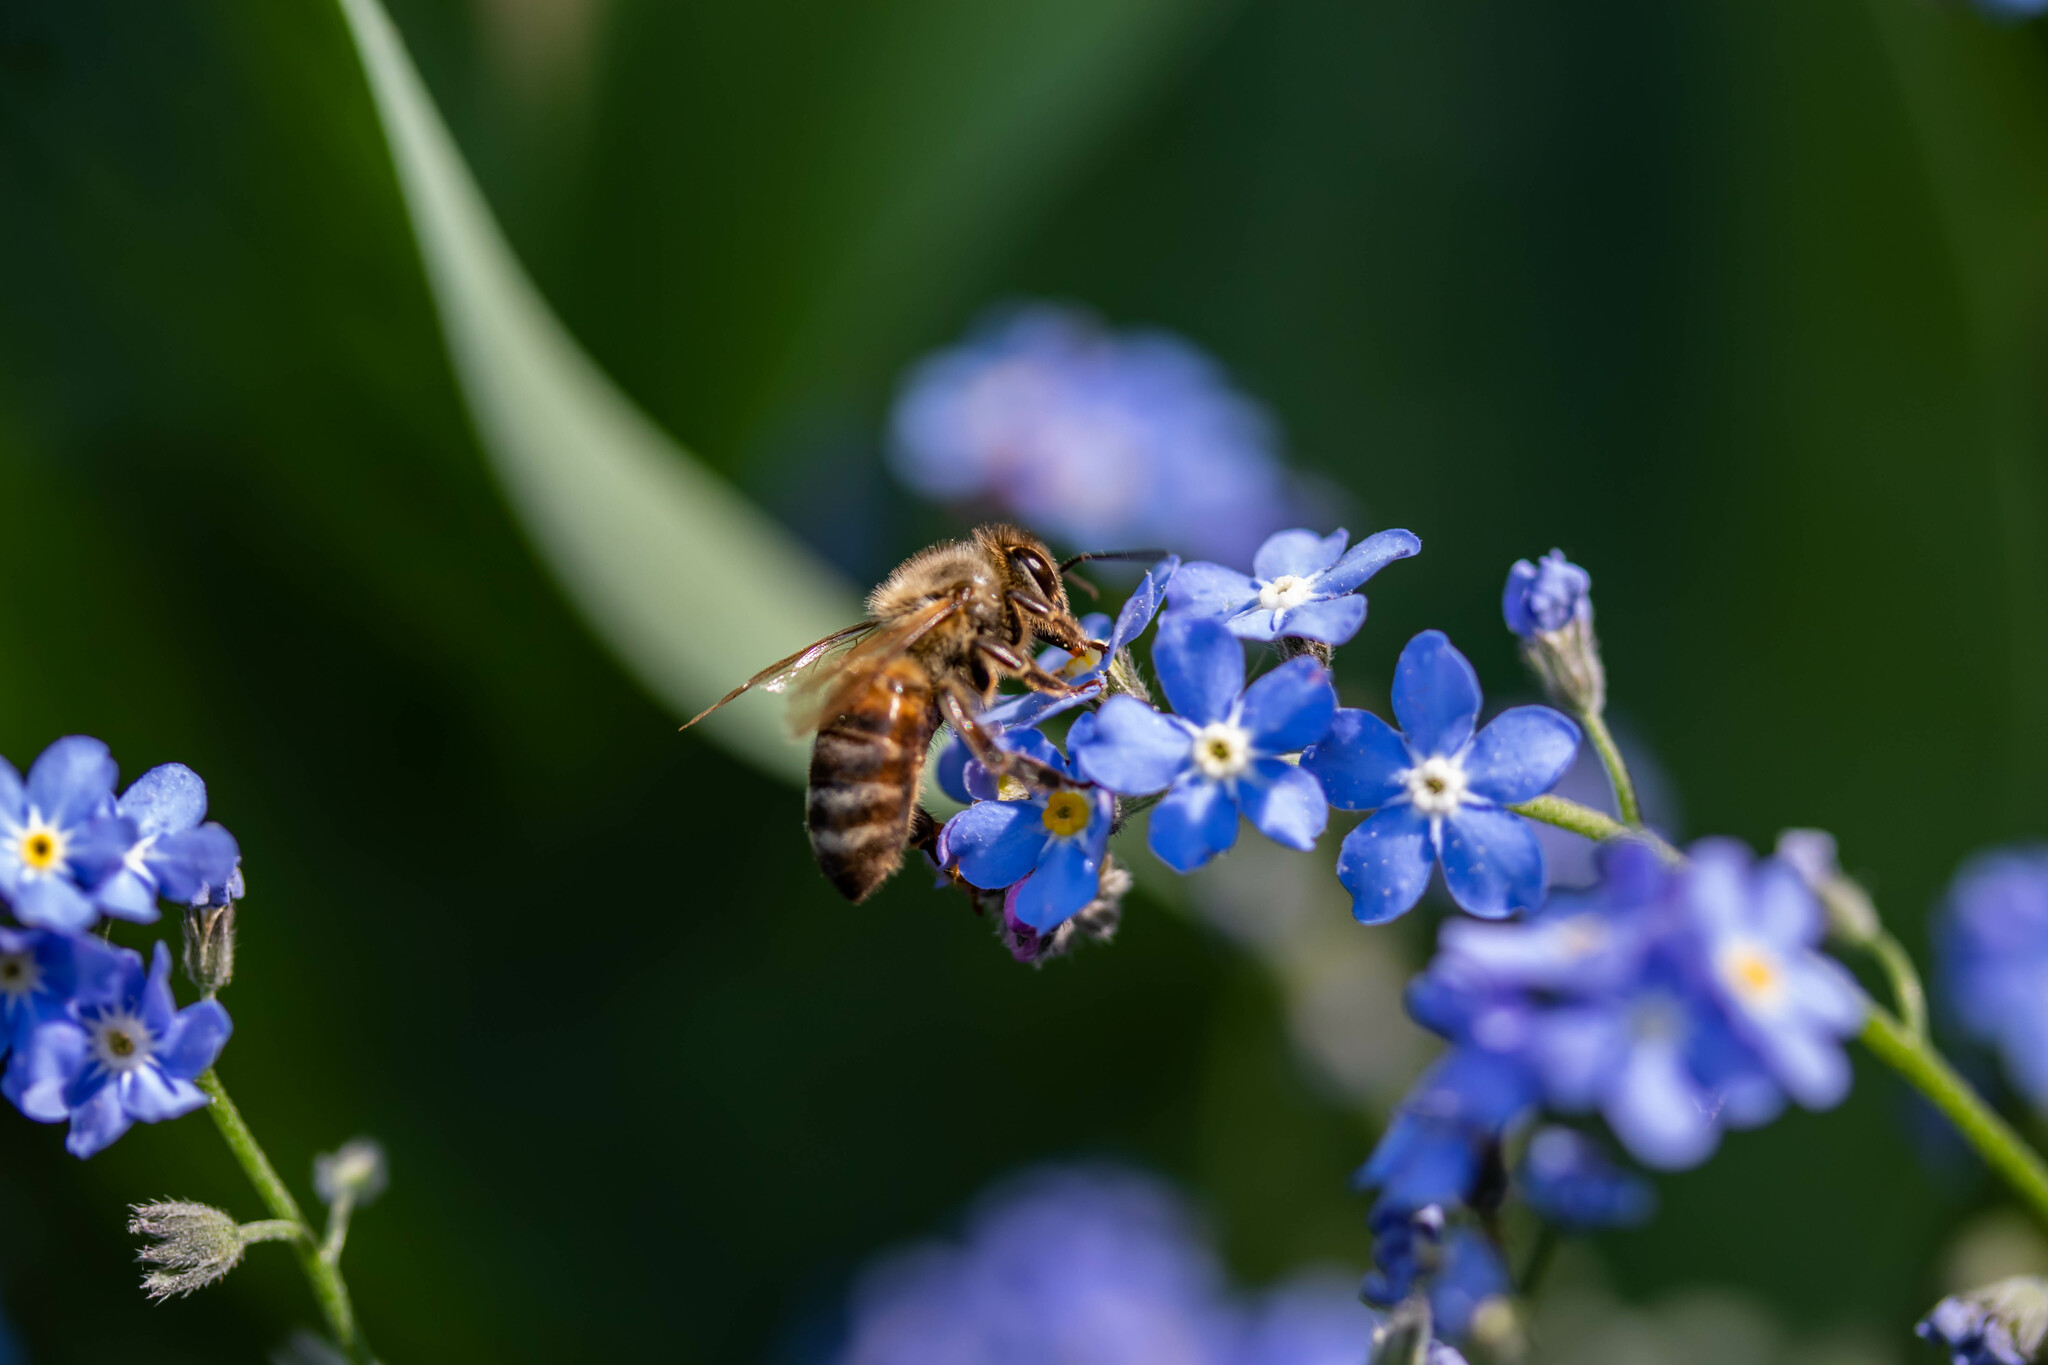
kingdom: Animalia
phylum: Arthropoda
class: Insecta
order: Hymenoptera
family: Apidae
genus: Apis
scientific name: Apis mellifera
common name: Honey bee
